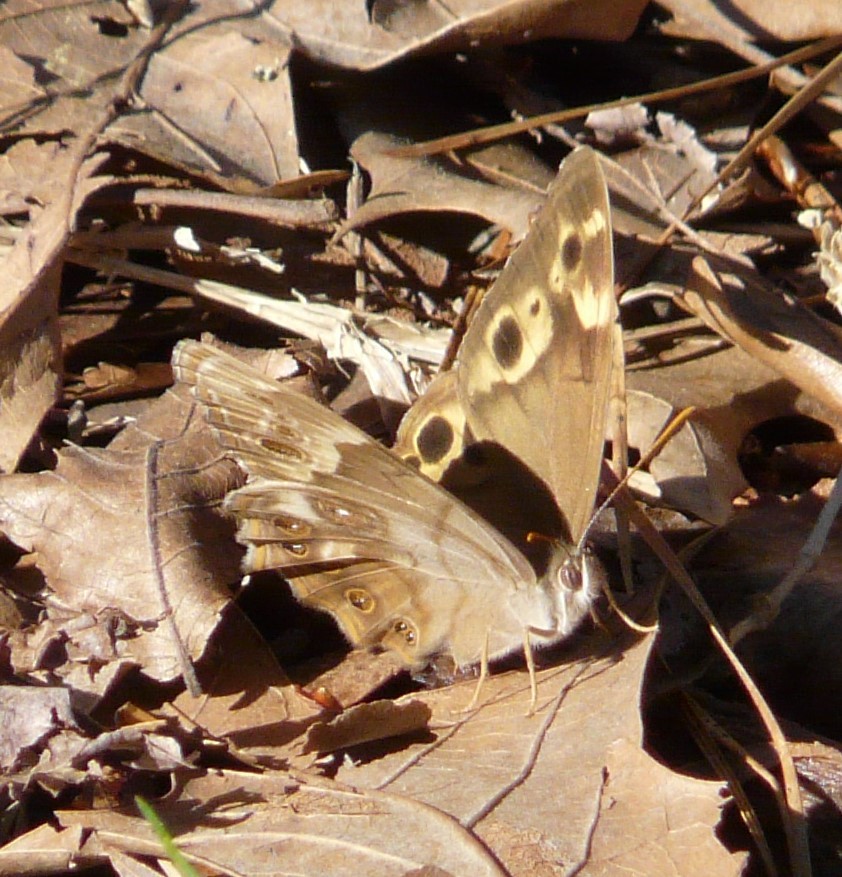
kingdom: Animalia
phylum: Arthropoda
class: Insecta
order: Lepidoptera
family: Nymphalidae
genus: Enodia
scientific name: Enodia portlandia
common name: Southern pearly-eye
